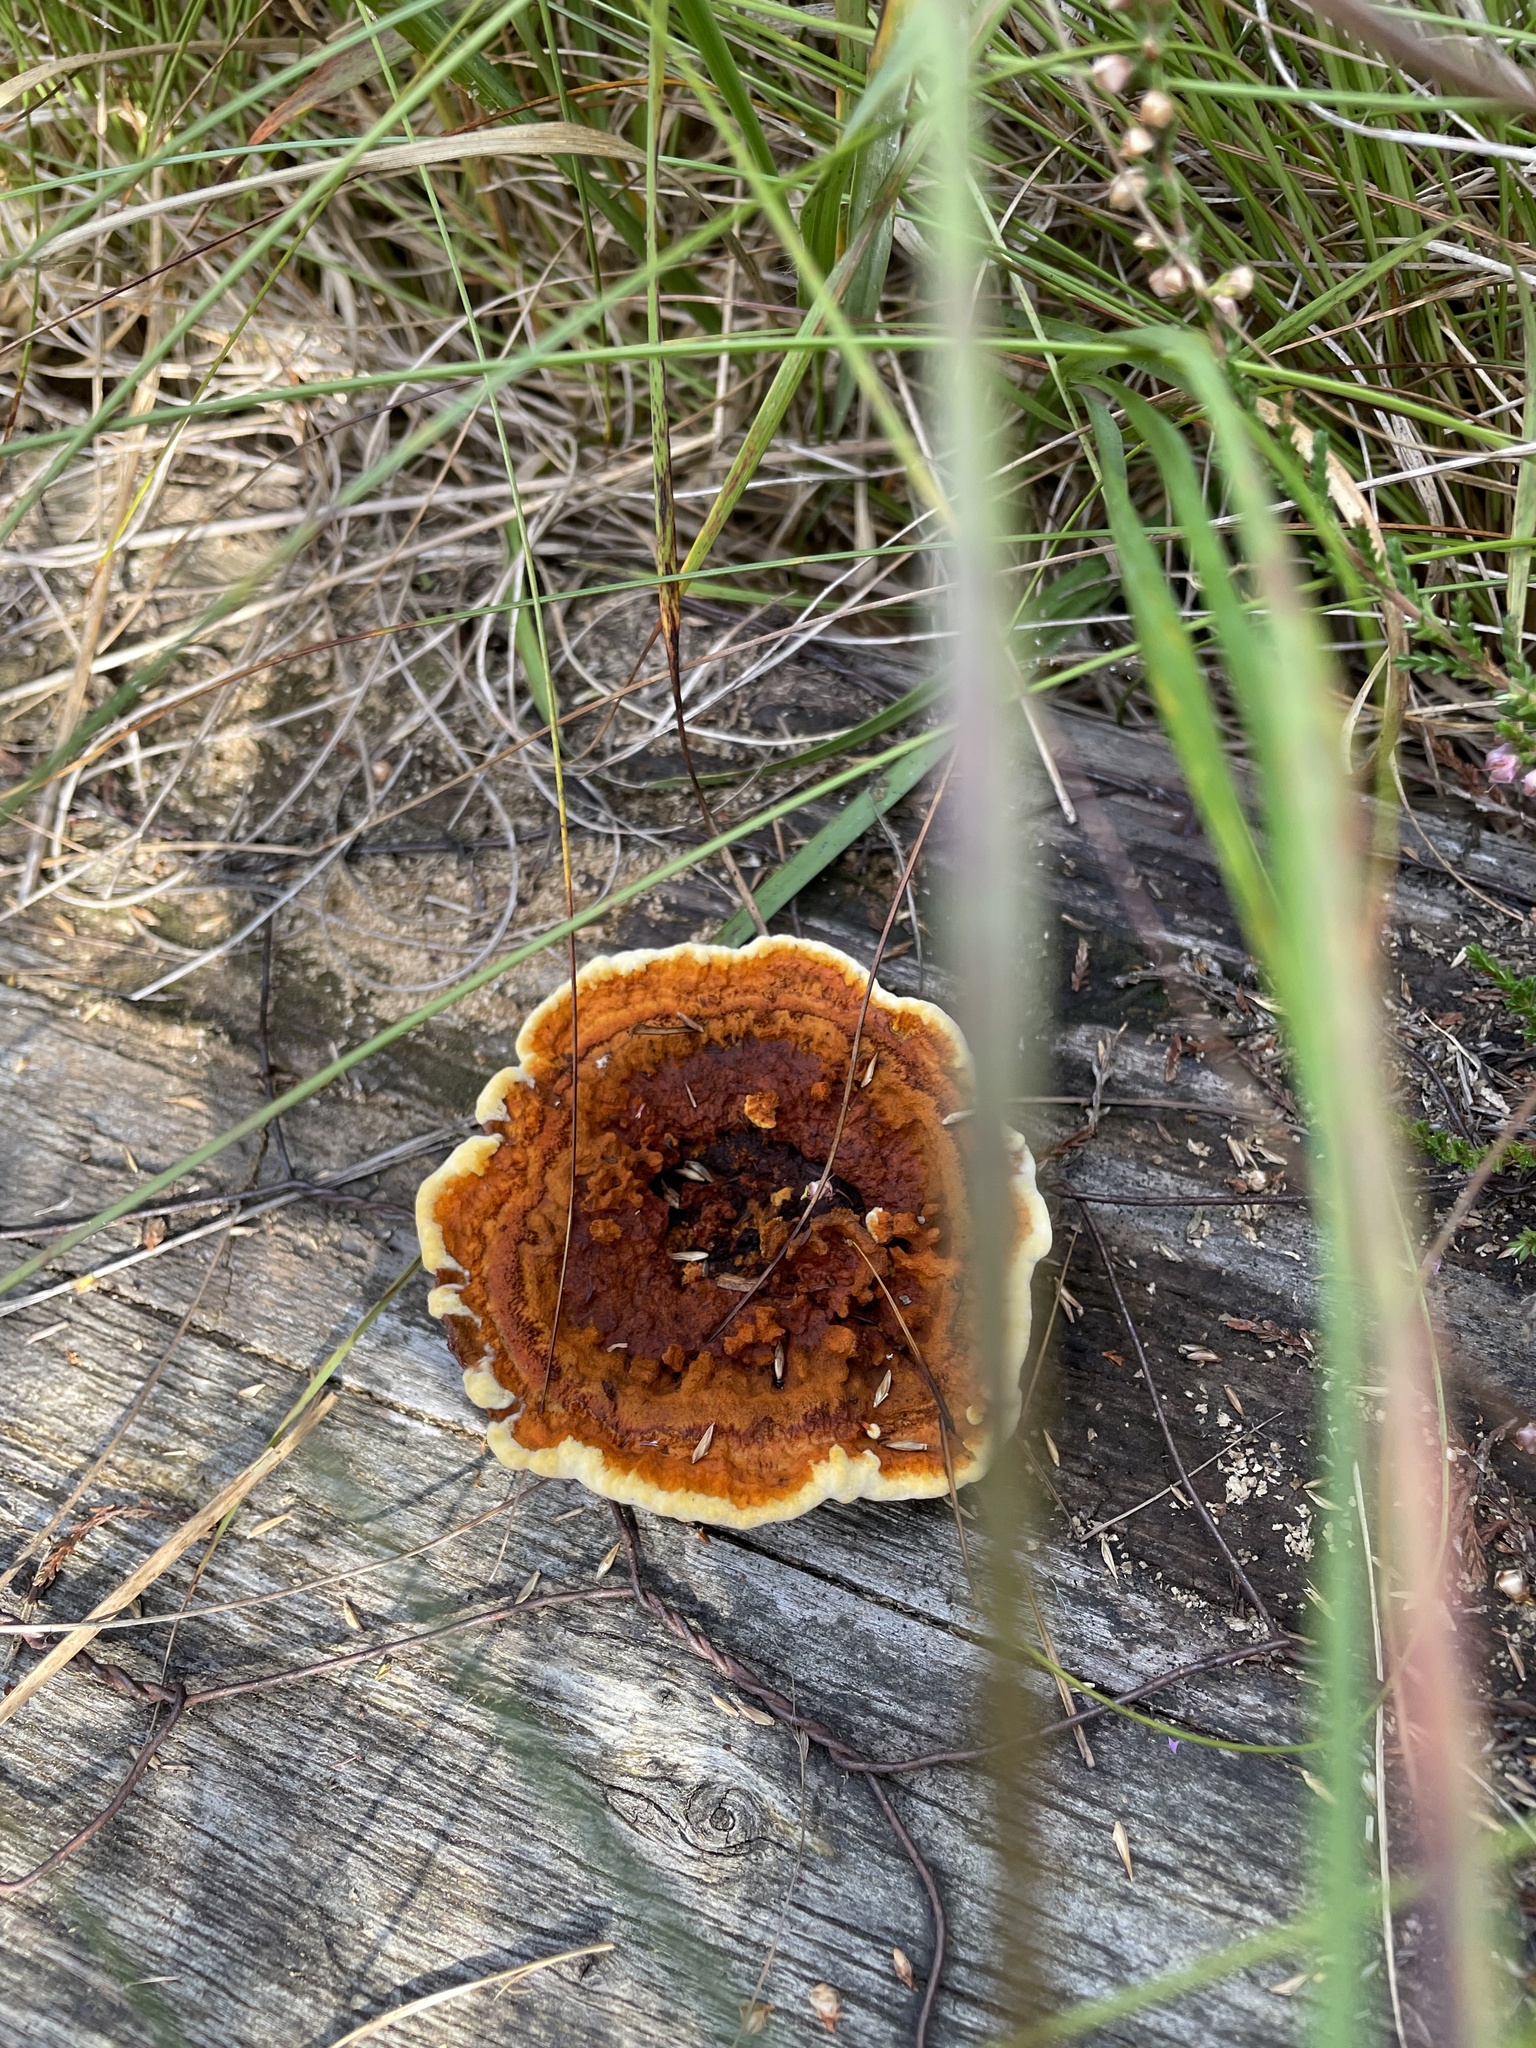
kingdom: Fungi
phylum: Basidiomycota
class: Agaricomycetes
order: Gloeophyllales
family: Gloeophyllaceae
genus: Gloeophyllum
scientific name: Gloeophyllum sepiarium
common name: Conifer mazegill
